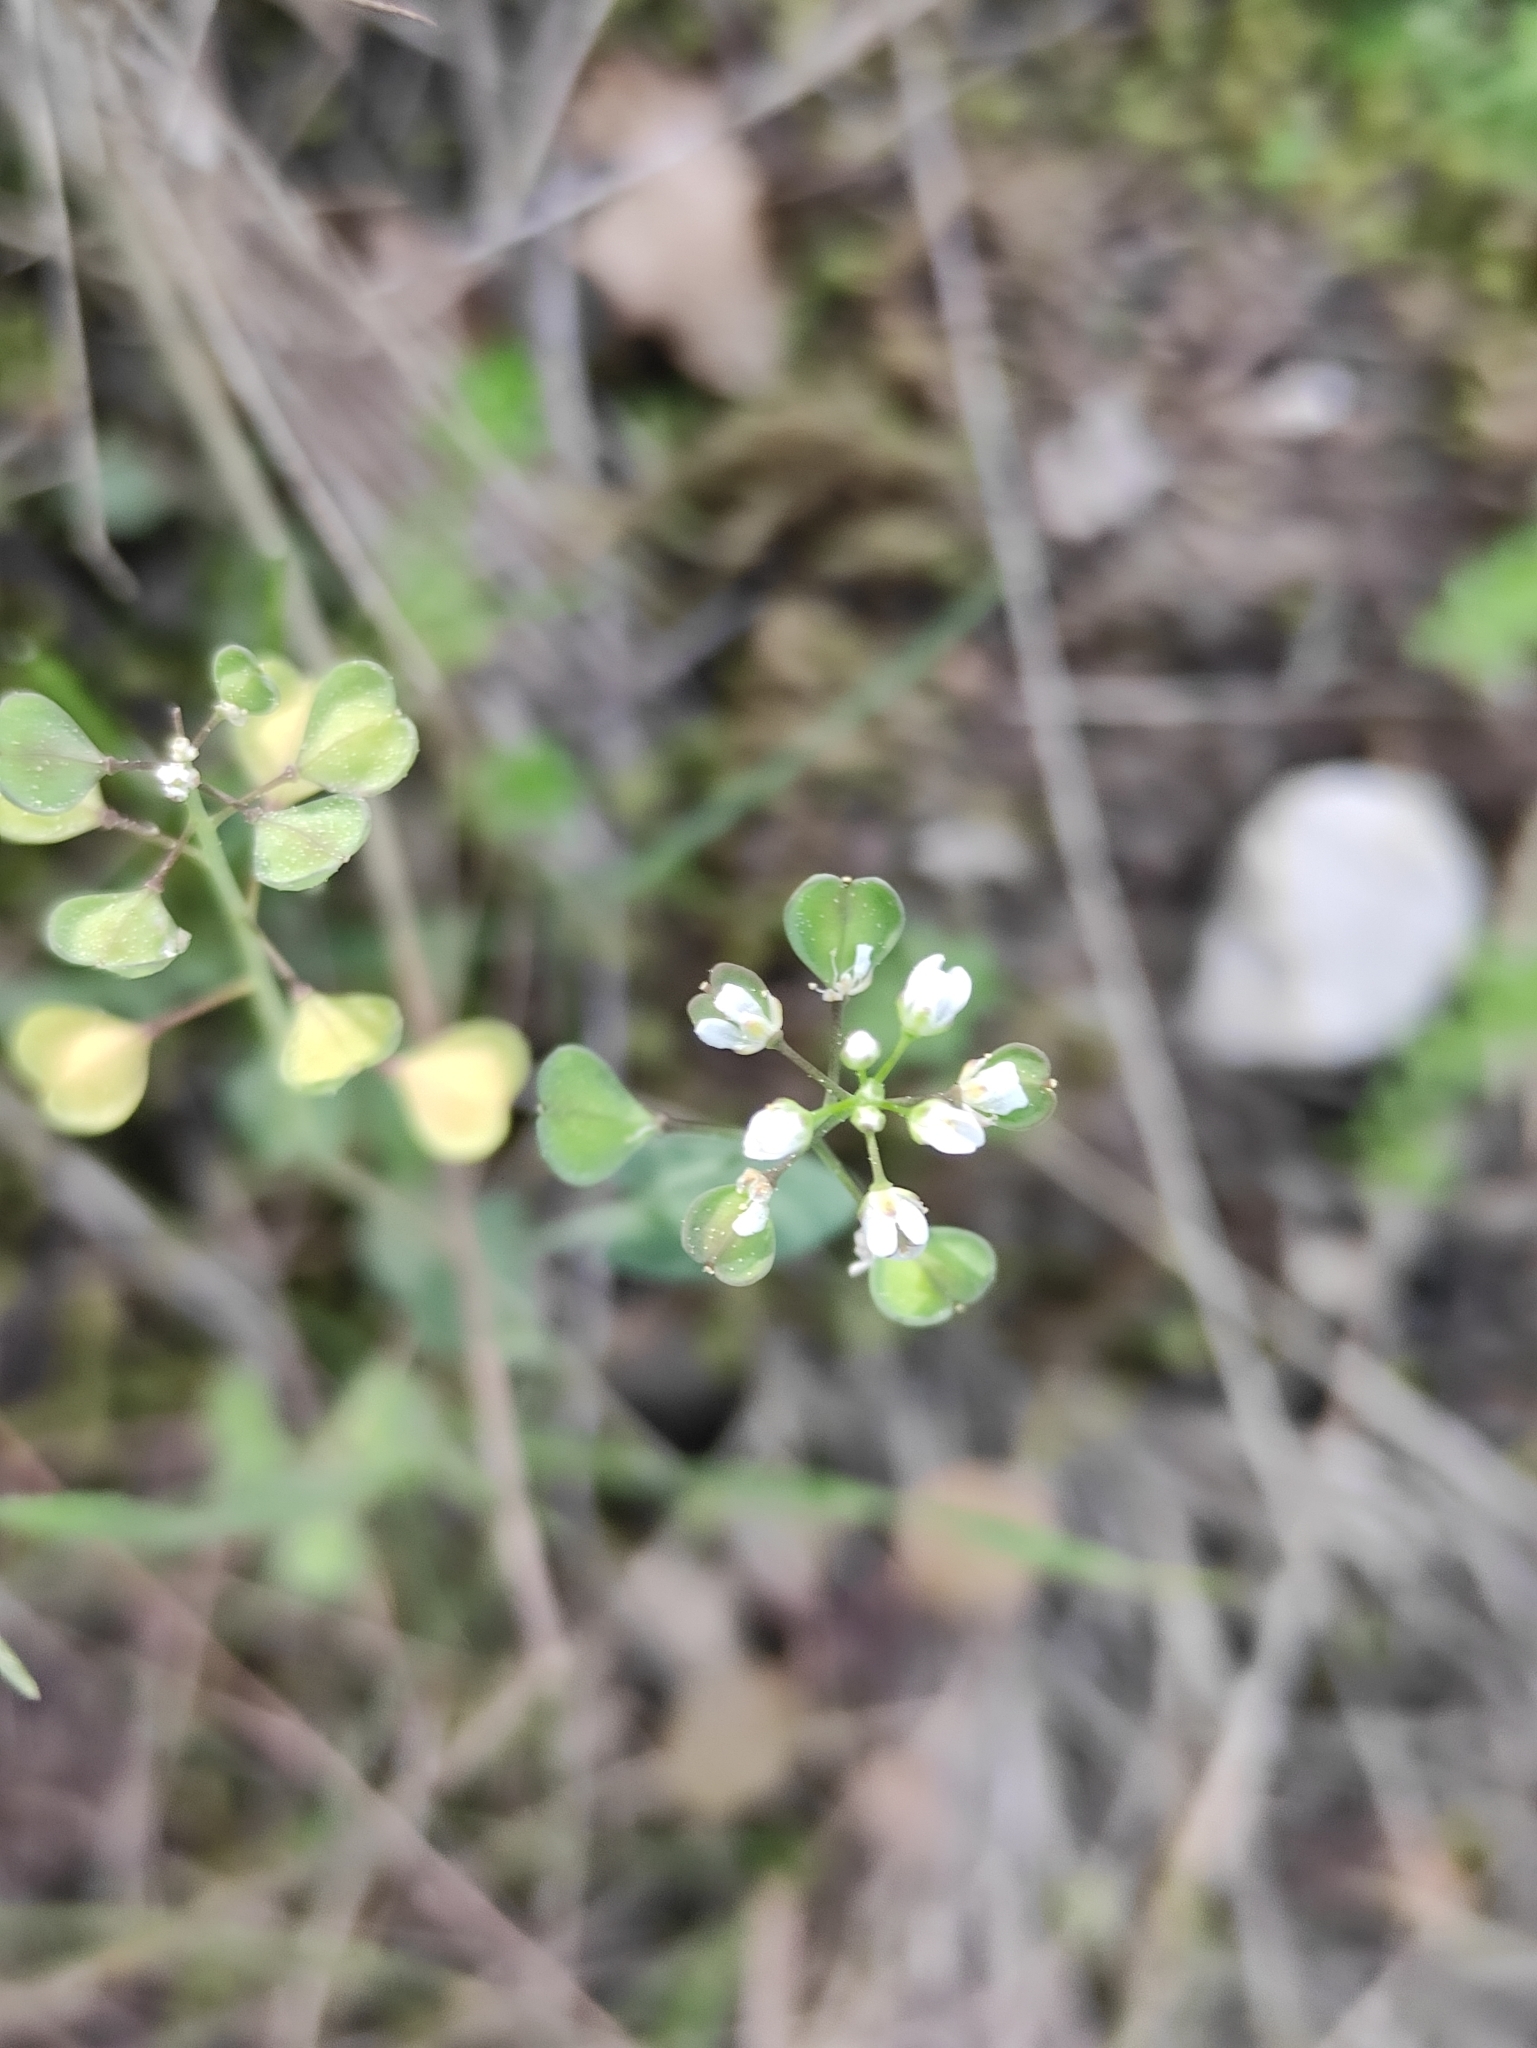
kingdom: Plantae
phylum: Tracheophyta
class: Magnoliopsida
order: Brassicales
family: Brassicaceae
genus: Noccaea
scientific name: Noccaea perfoliata
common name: Perfoliate pennycress
